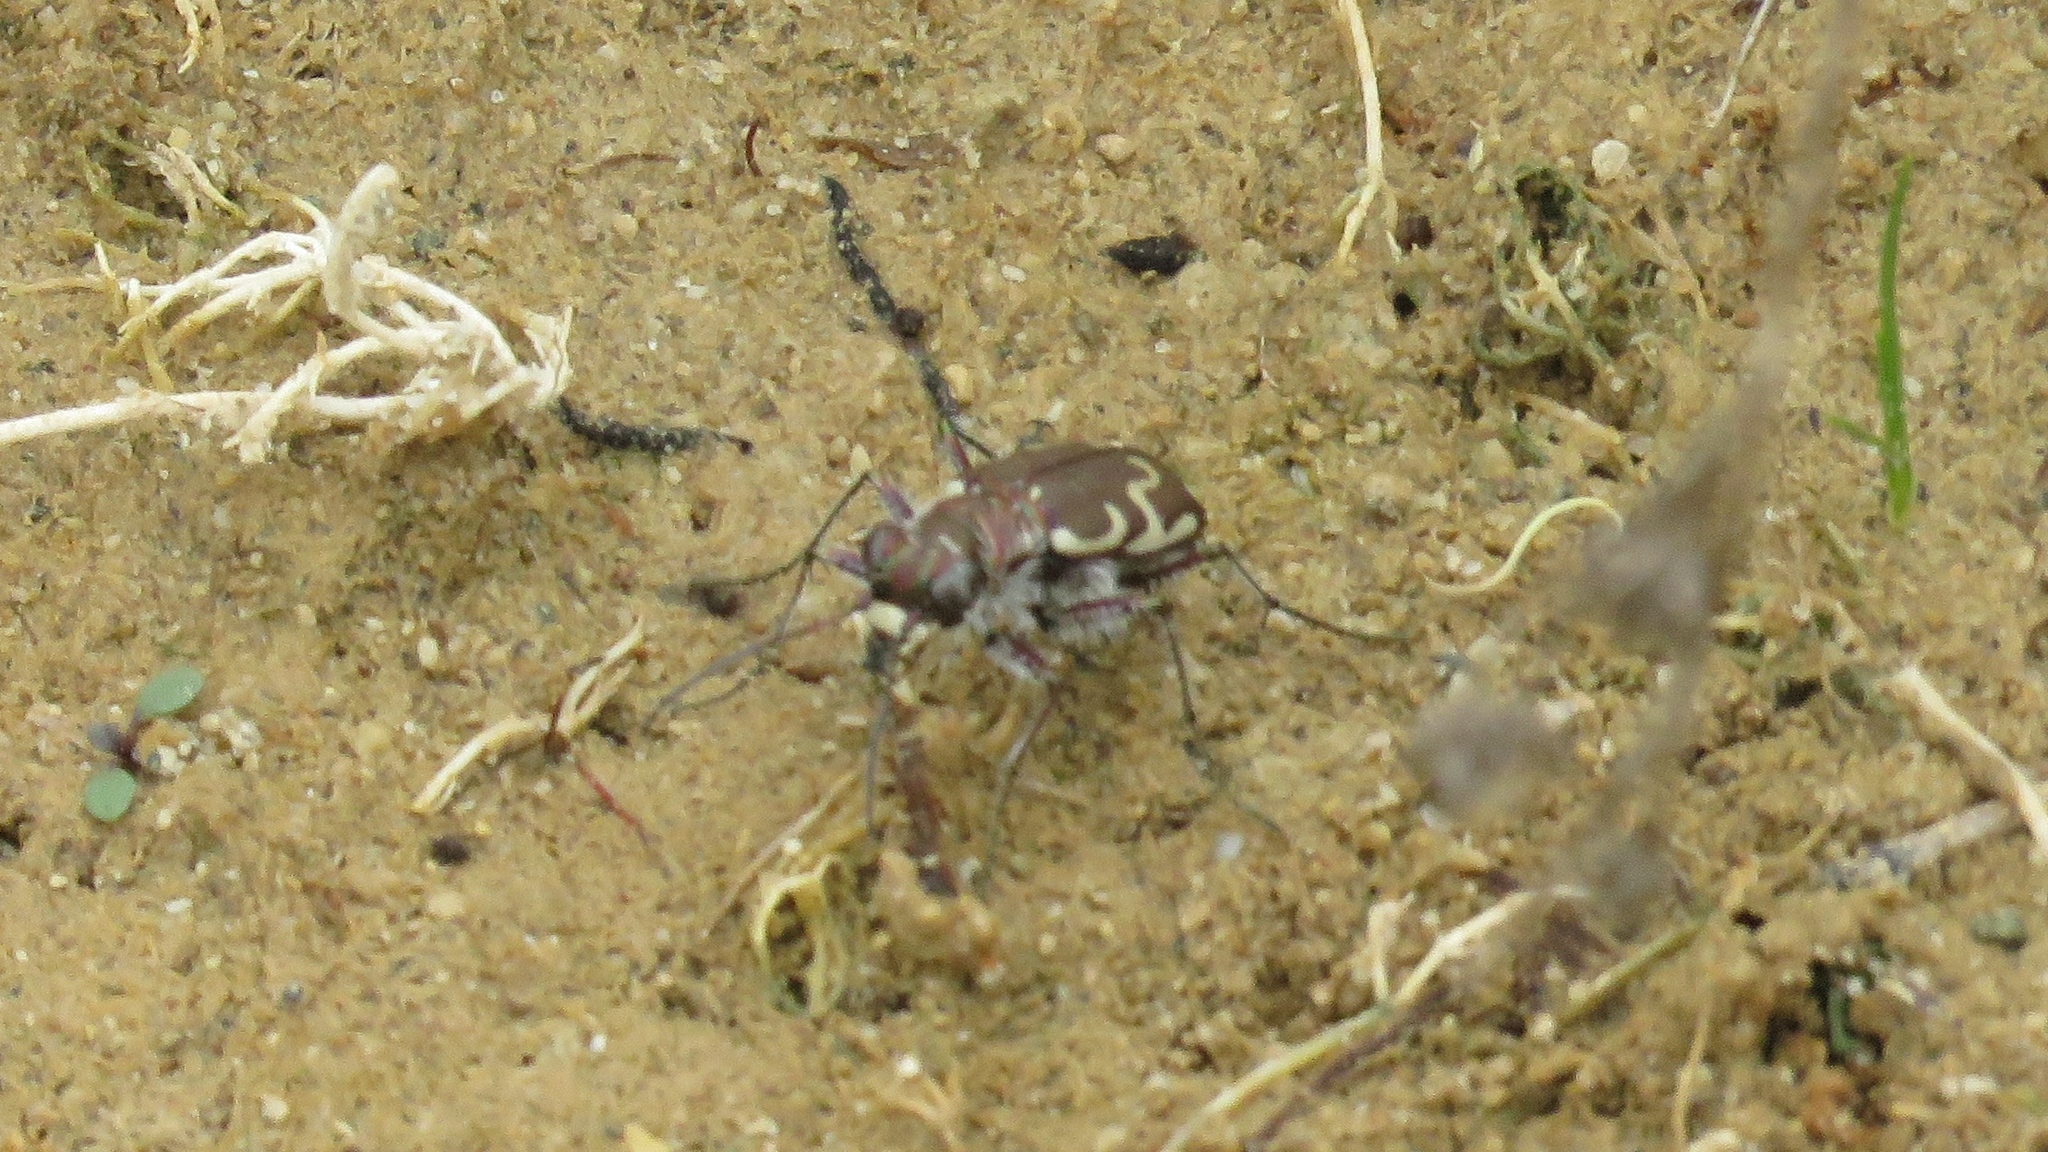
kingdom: Animalia
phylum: Arthropoda
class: Insecta
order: Coleoptera
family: Carabidae
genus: Cicindela
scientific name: Cicindela repanda
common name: Bronzed tiger beetle
